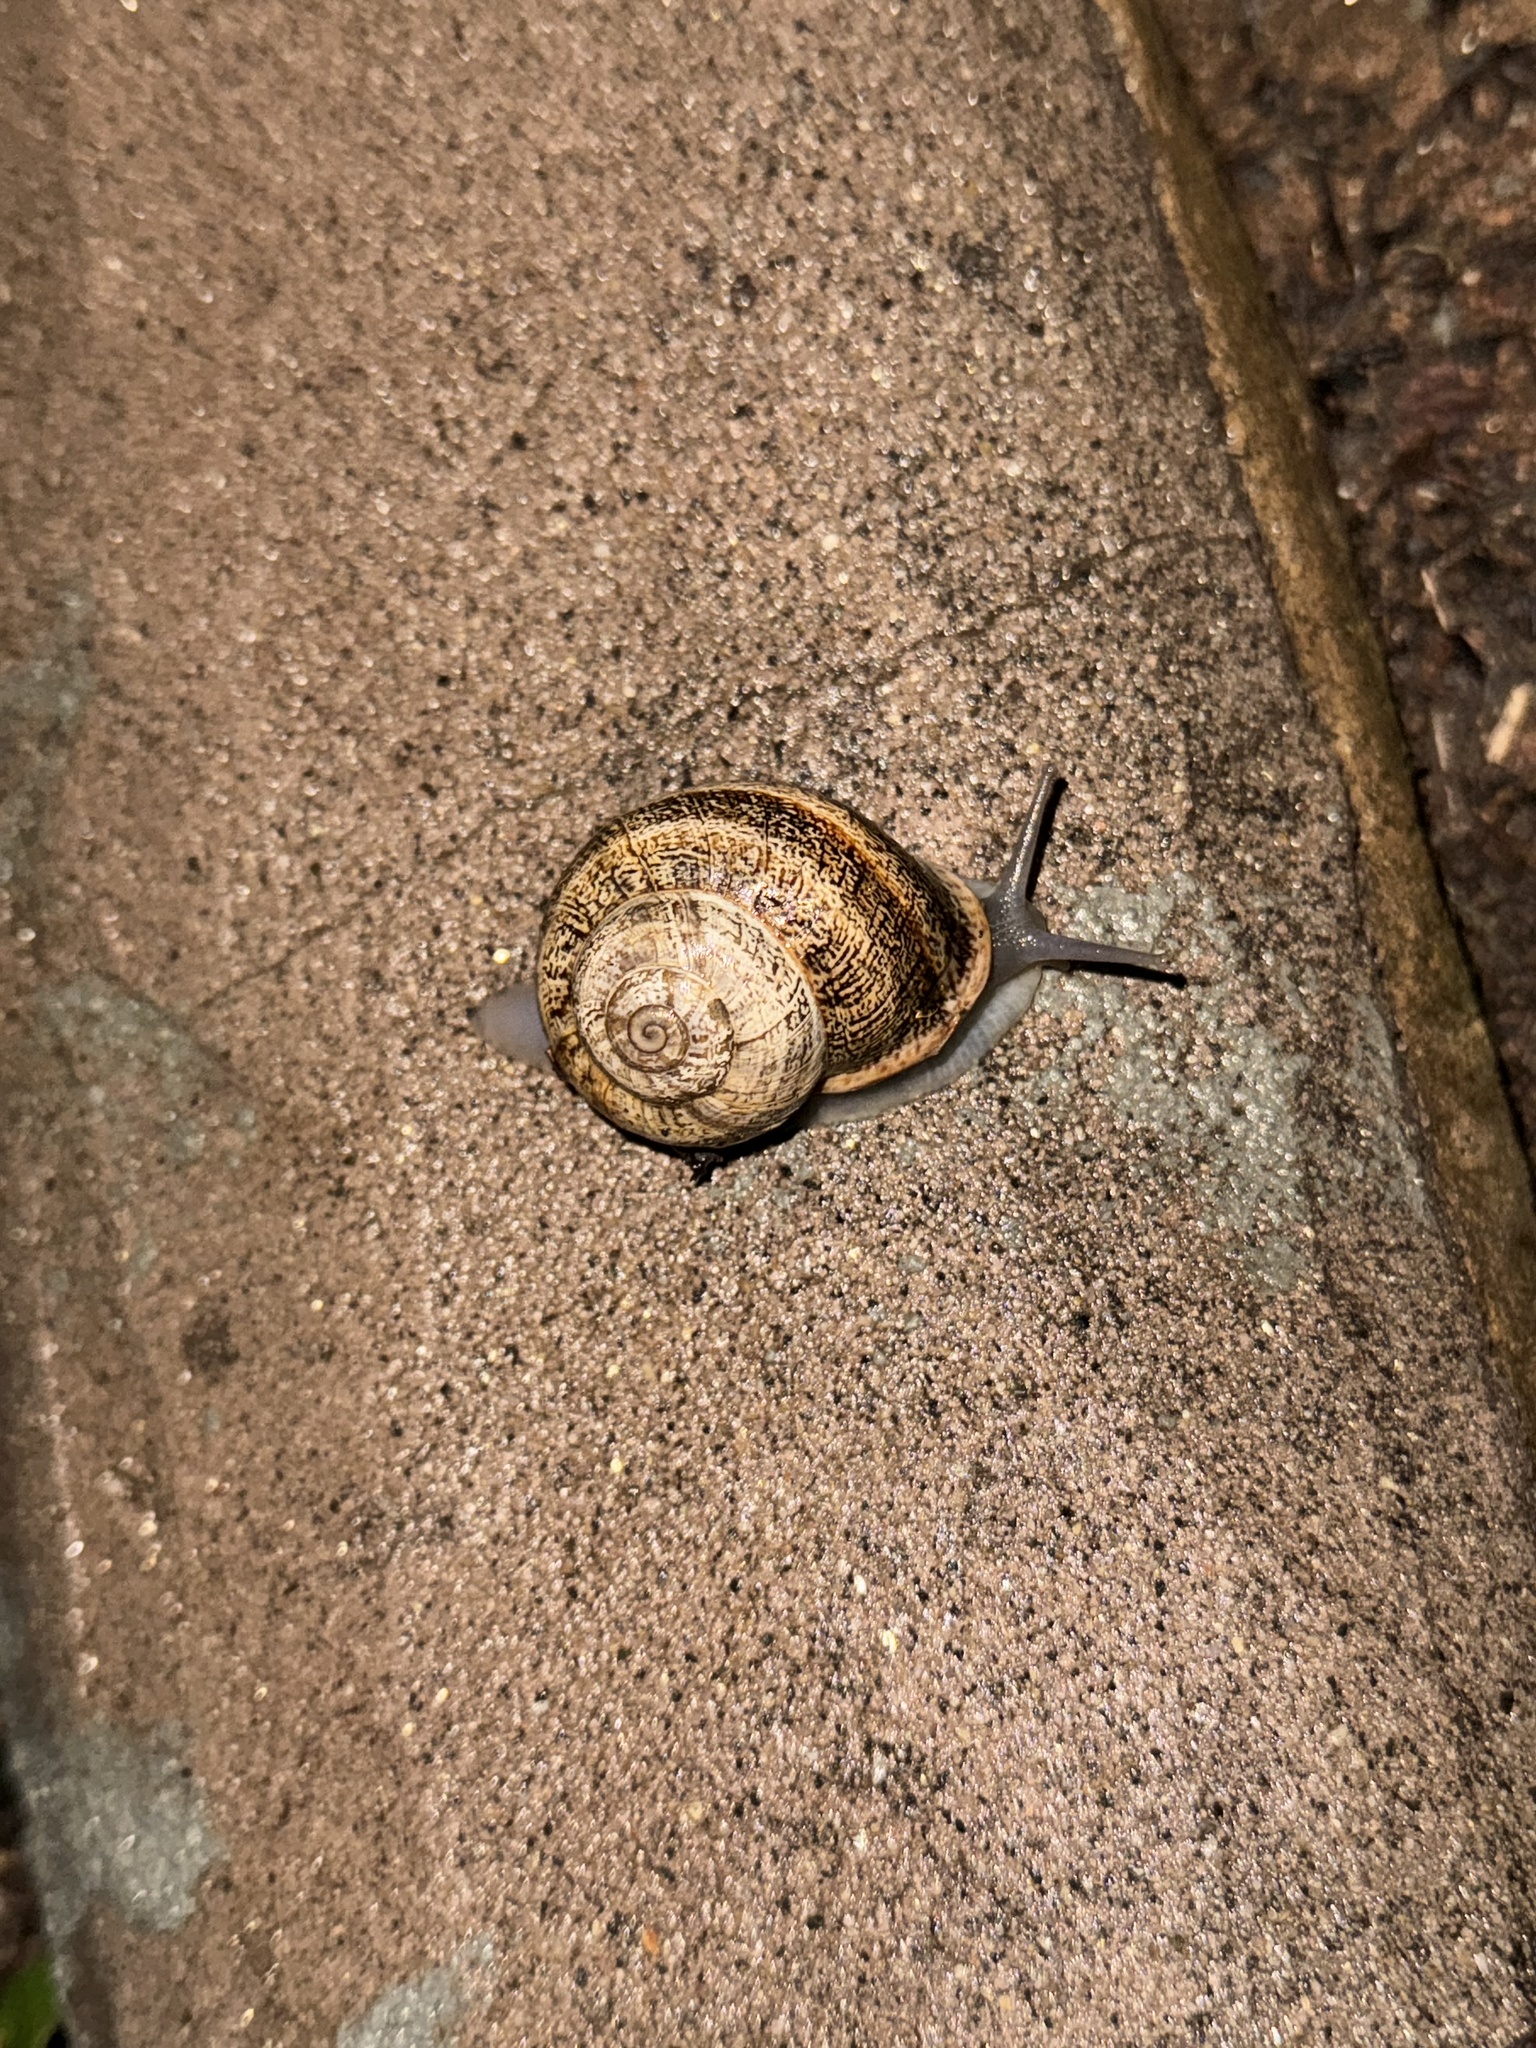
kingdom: Animalia
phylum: Mollusca
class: Gastropoda
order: Stylommatophora
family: Helicidae
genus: Otala
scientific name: Otala lactea
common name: Milk snail
